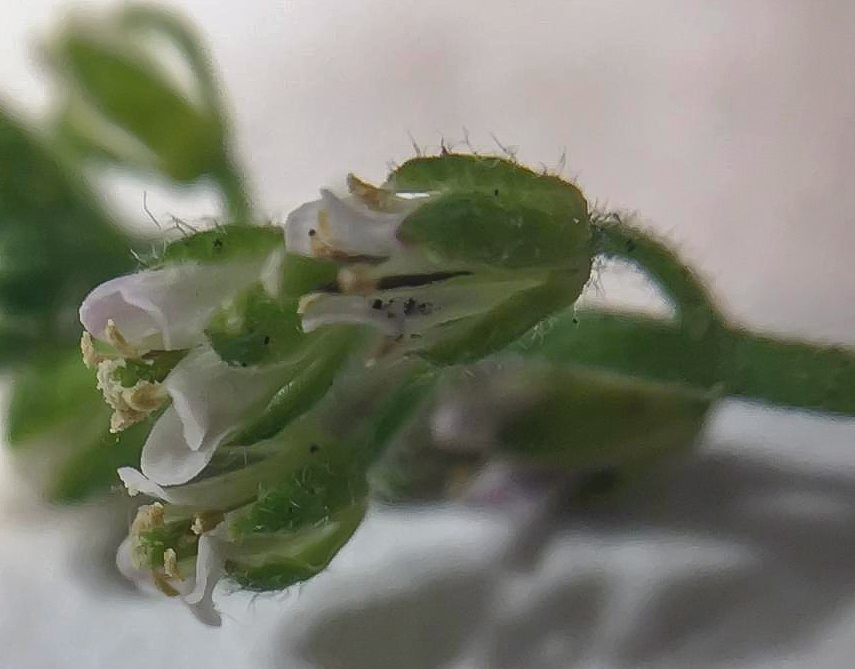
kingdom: Plantae
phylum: Tracheophyta
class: Magnoliopsida
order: Brassicales
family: Brassicaceae
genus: Borodinia
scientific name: Borodinia dentata
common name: Short's rockcress
